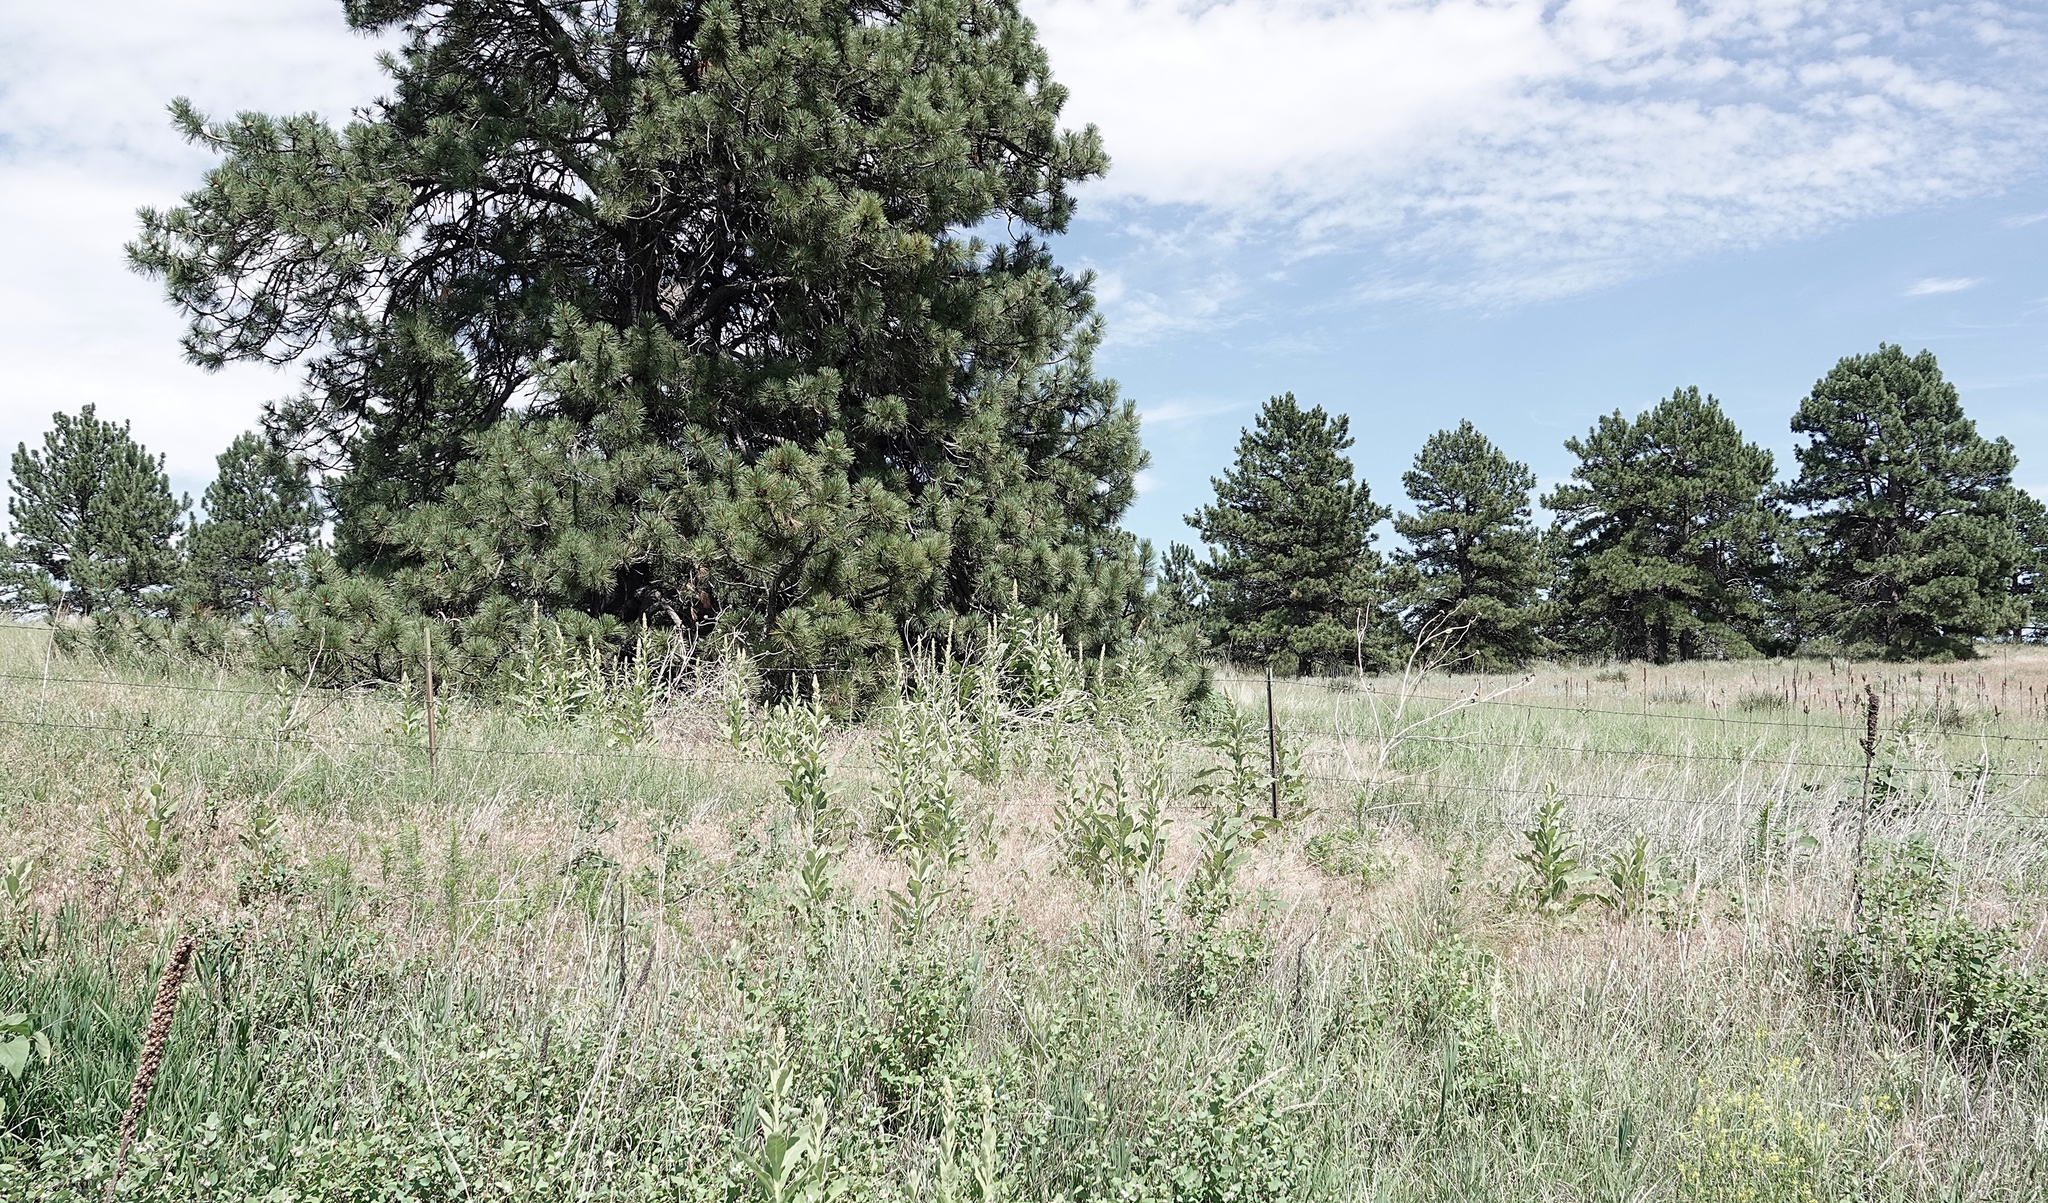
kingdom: Plantae
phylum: Tracheophyta
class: Magnoliopsida
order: Lamiales
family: Scrophulariaceae
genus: Verbascum
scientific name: Verbascum thapsus
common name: Common mullein
